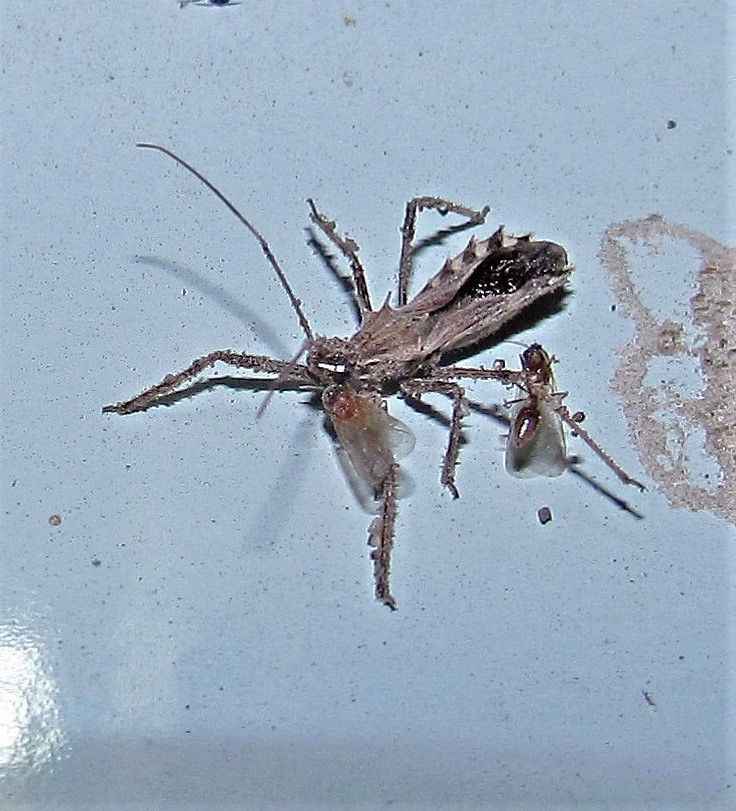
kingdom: Animalia
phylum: Arthropoda
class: Insecta
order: Hemiptera
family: Reduviidae
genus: Atrachelus
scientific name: Atrachelus cinereus
